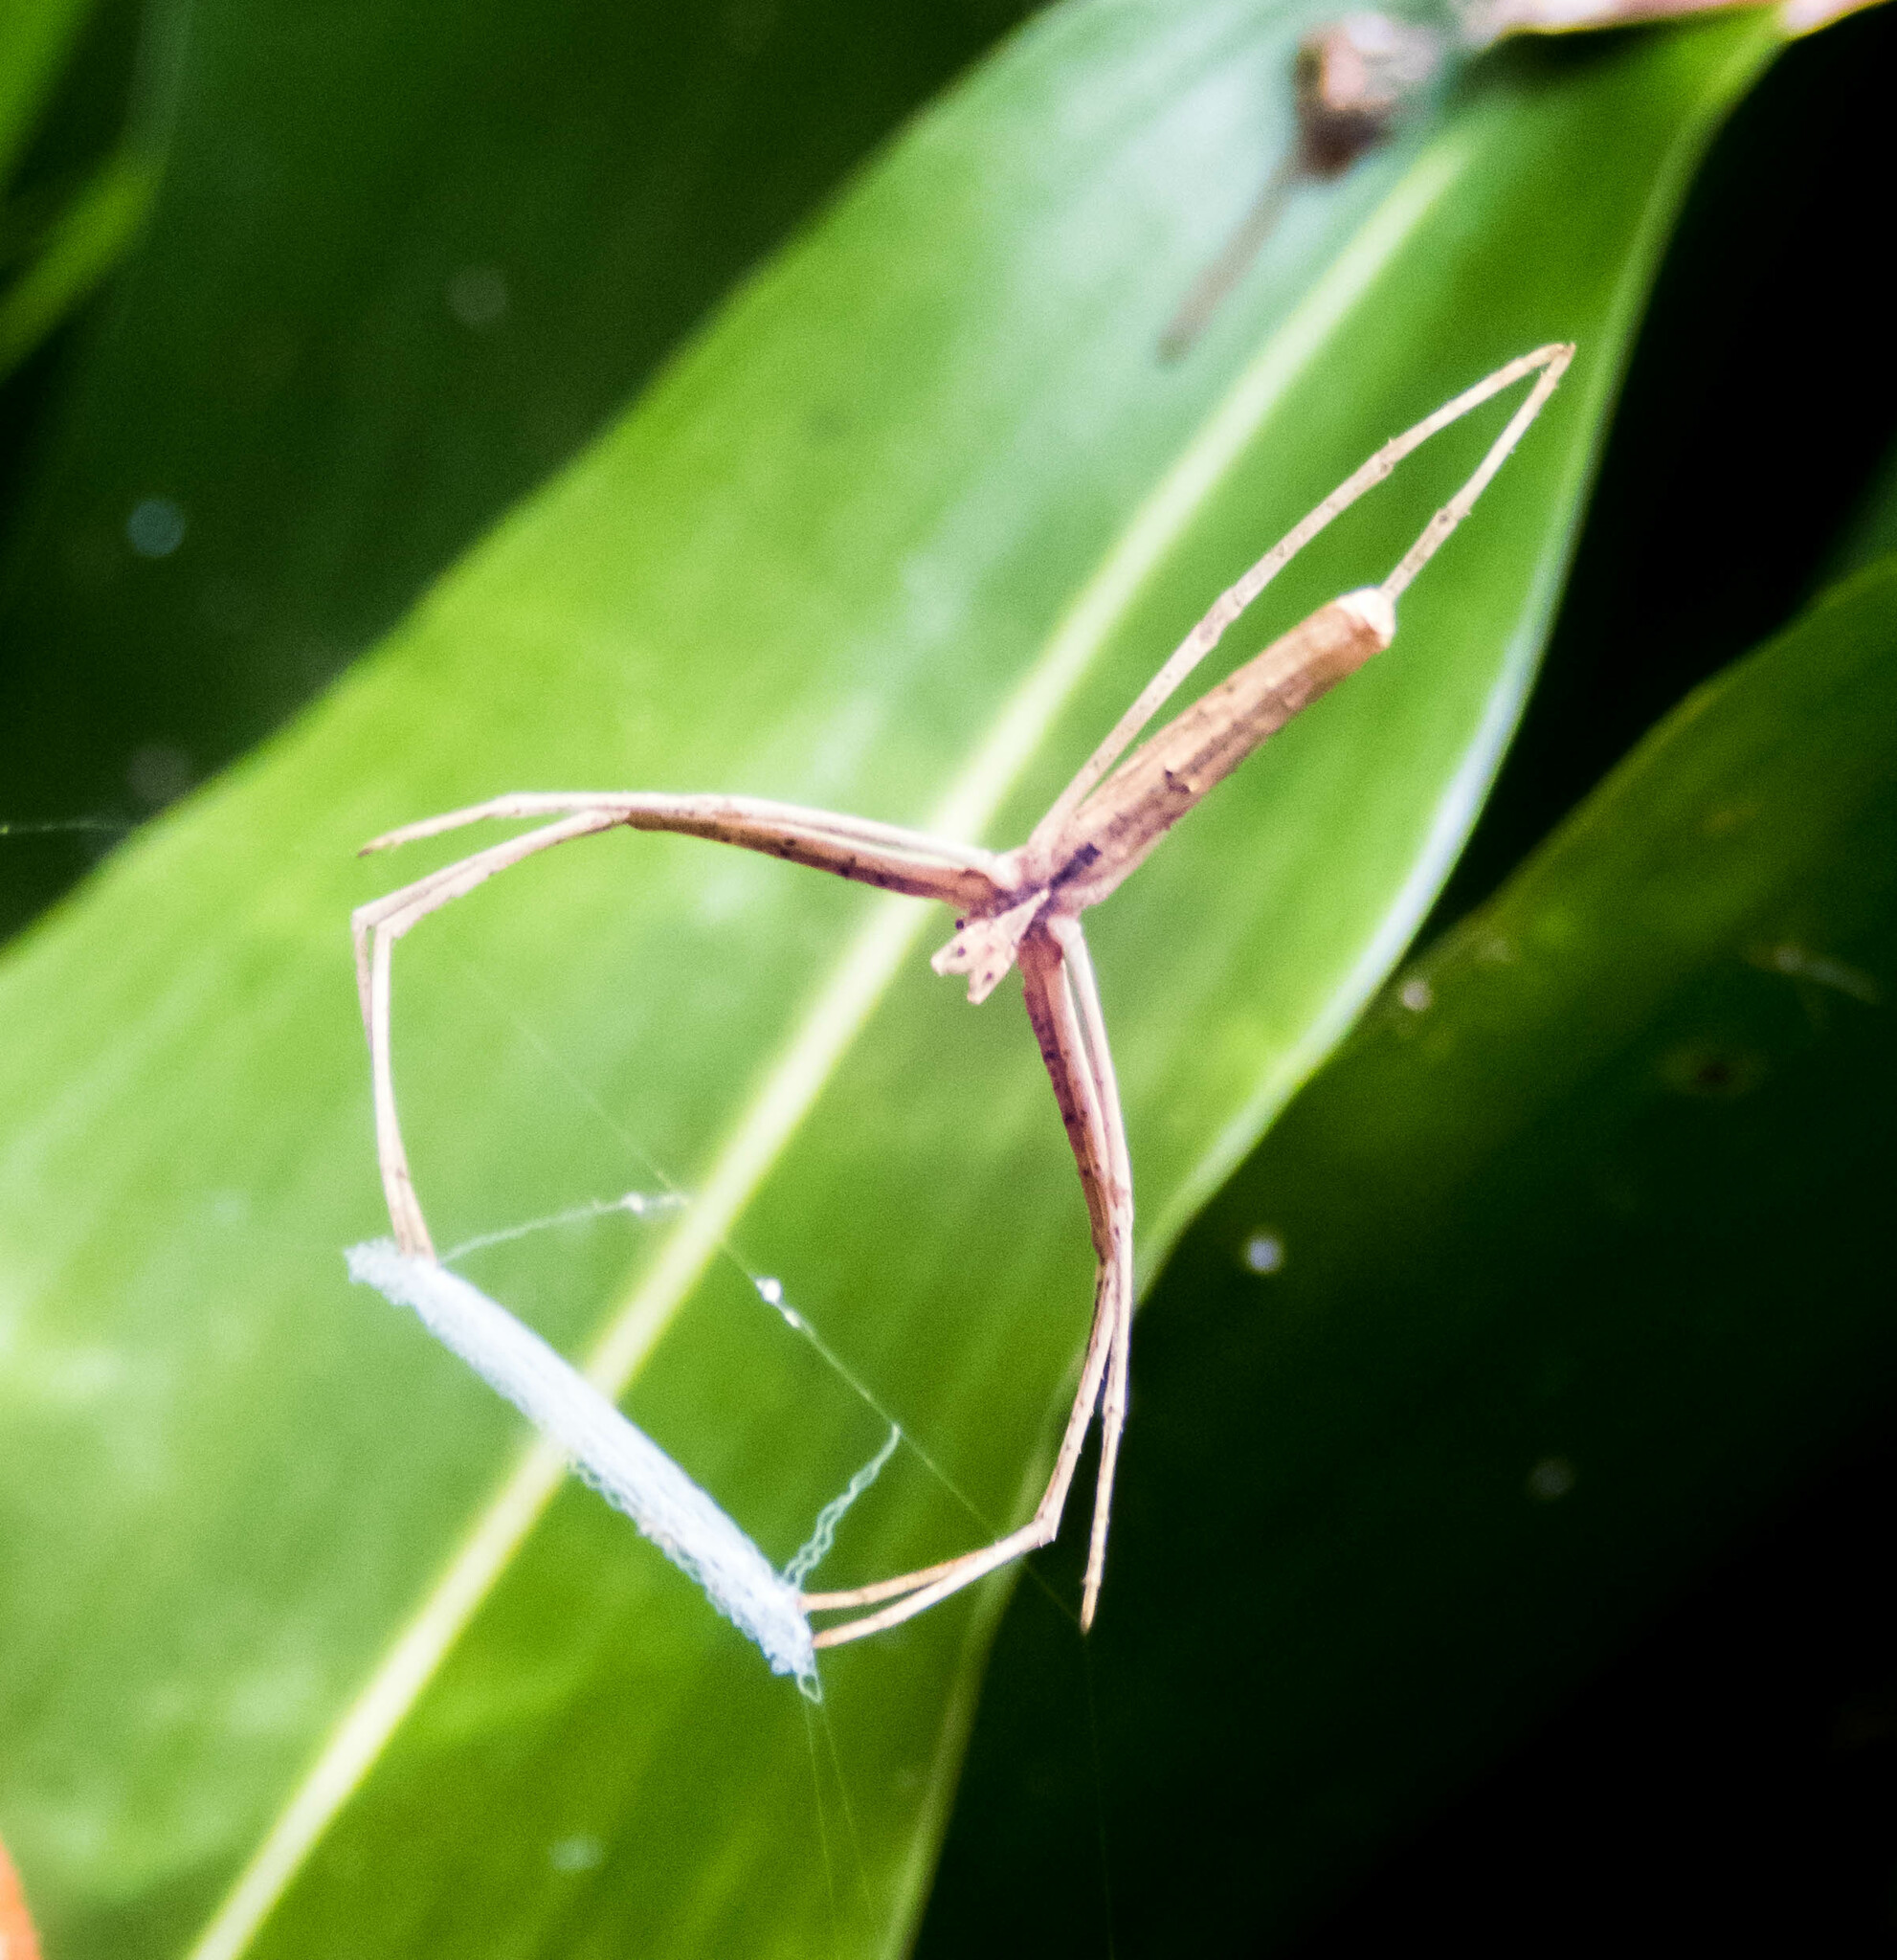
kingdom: Animalia
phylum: Arthropoda
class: Arachnida
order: Araneae
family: Deinopidae
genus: Deinopis
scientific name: Deinopis subrufa
